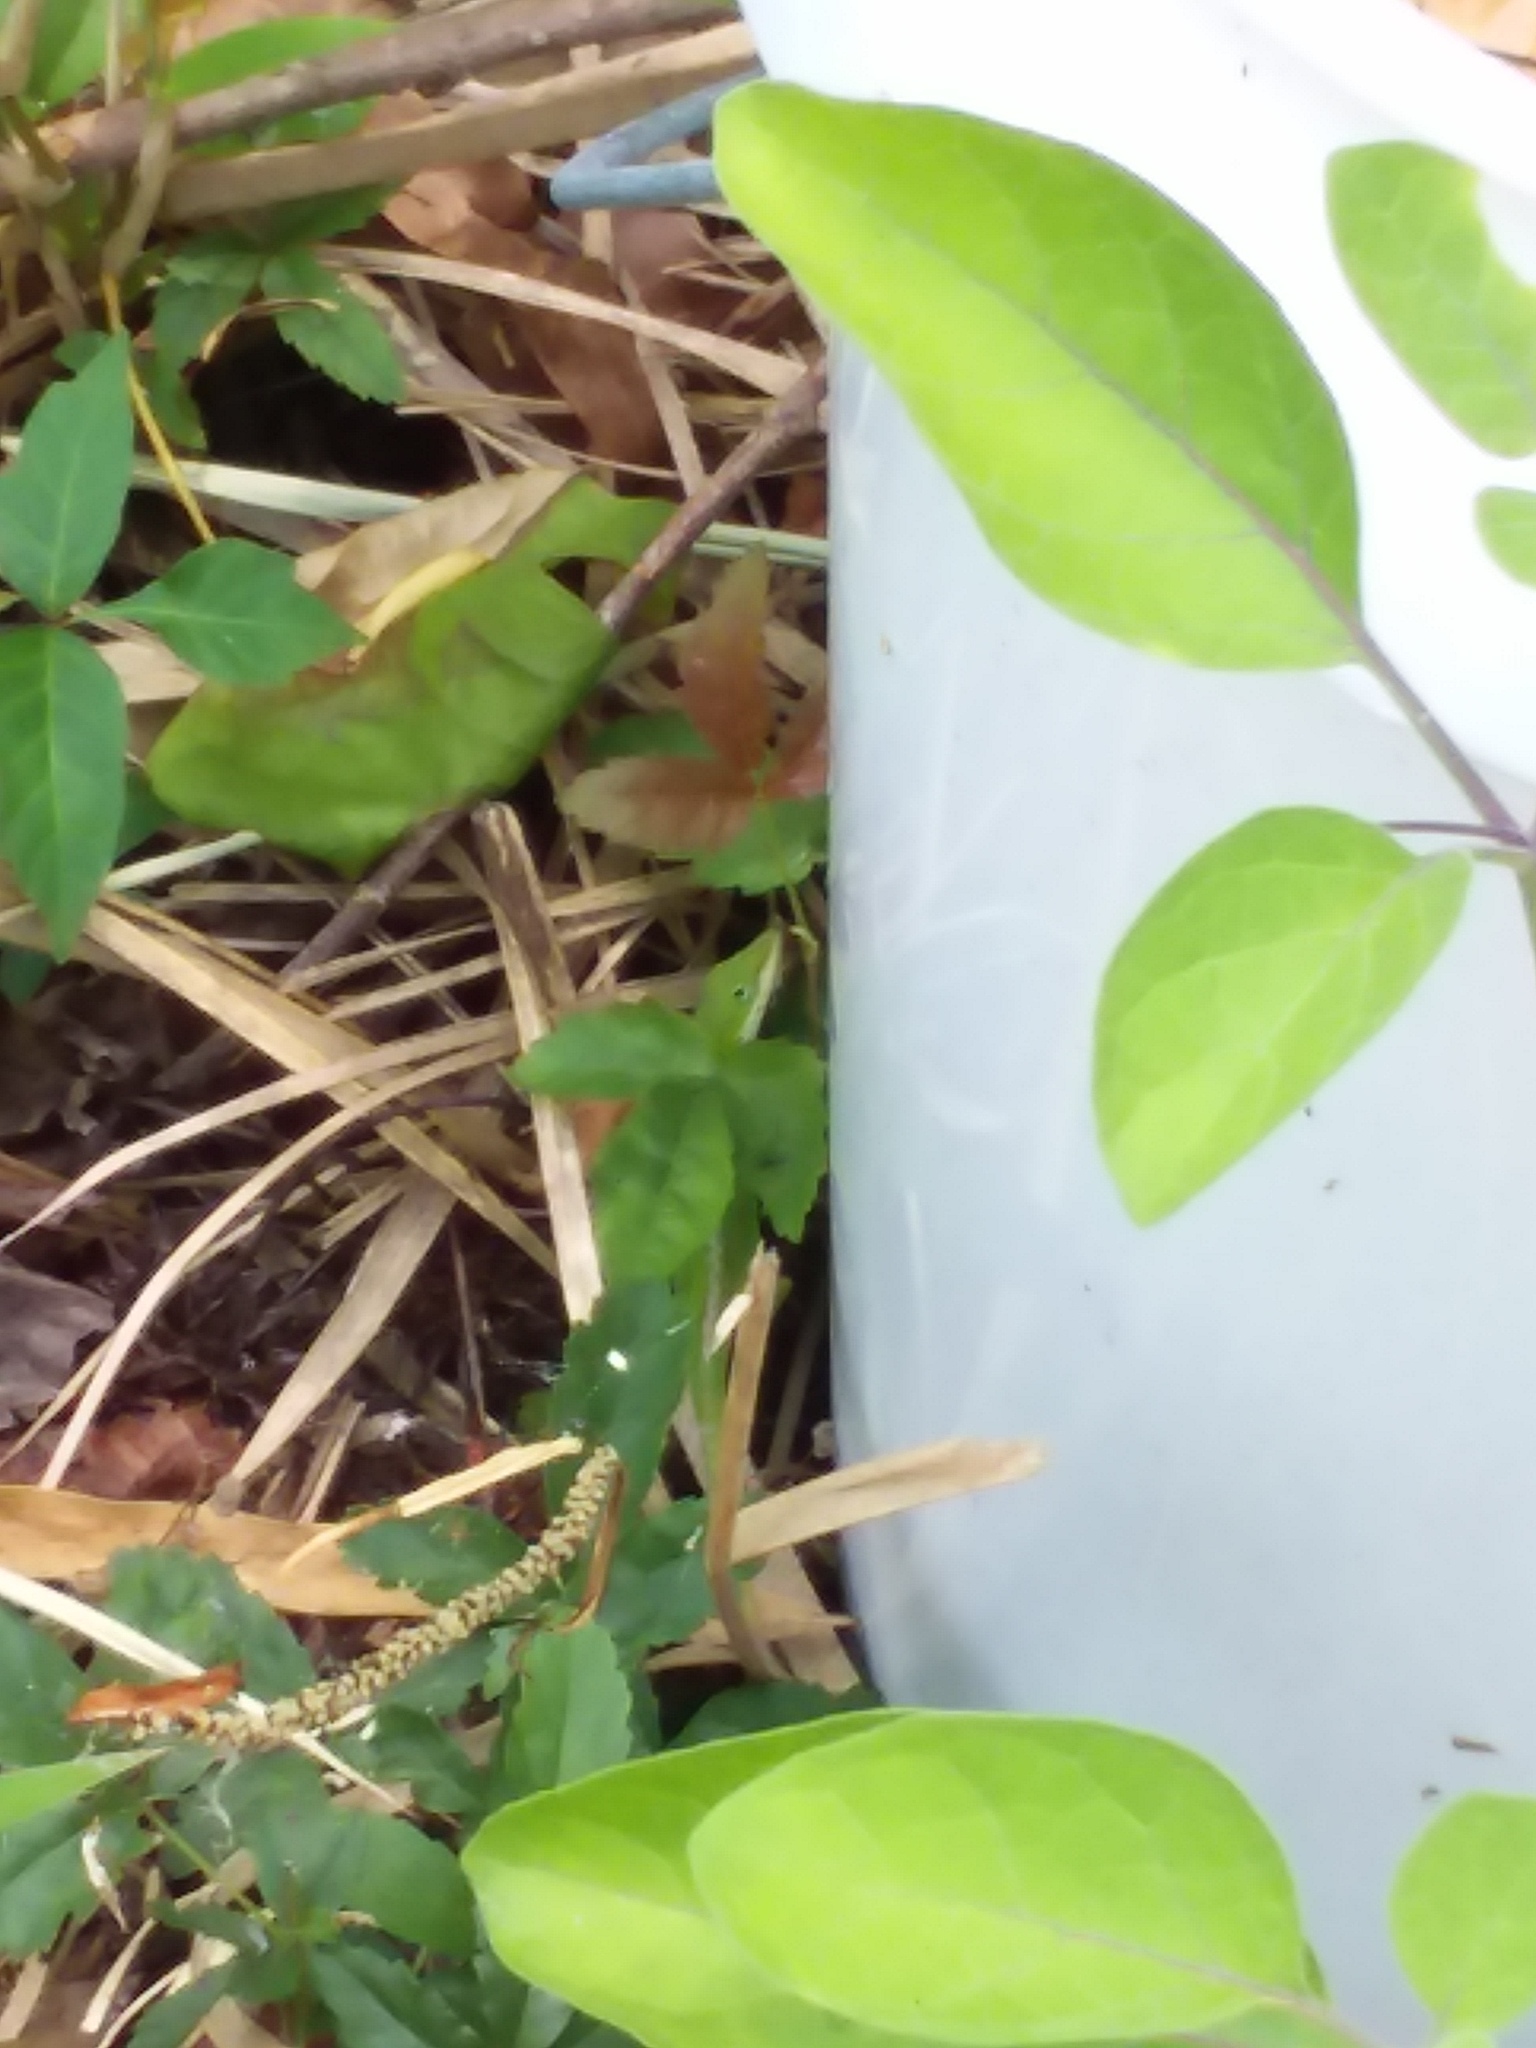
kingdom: Animalia
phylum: Chordata
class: Squamata
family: Dactyloidae
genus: Anolis
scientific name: Anolis carolinensis
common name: Green anole
